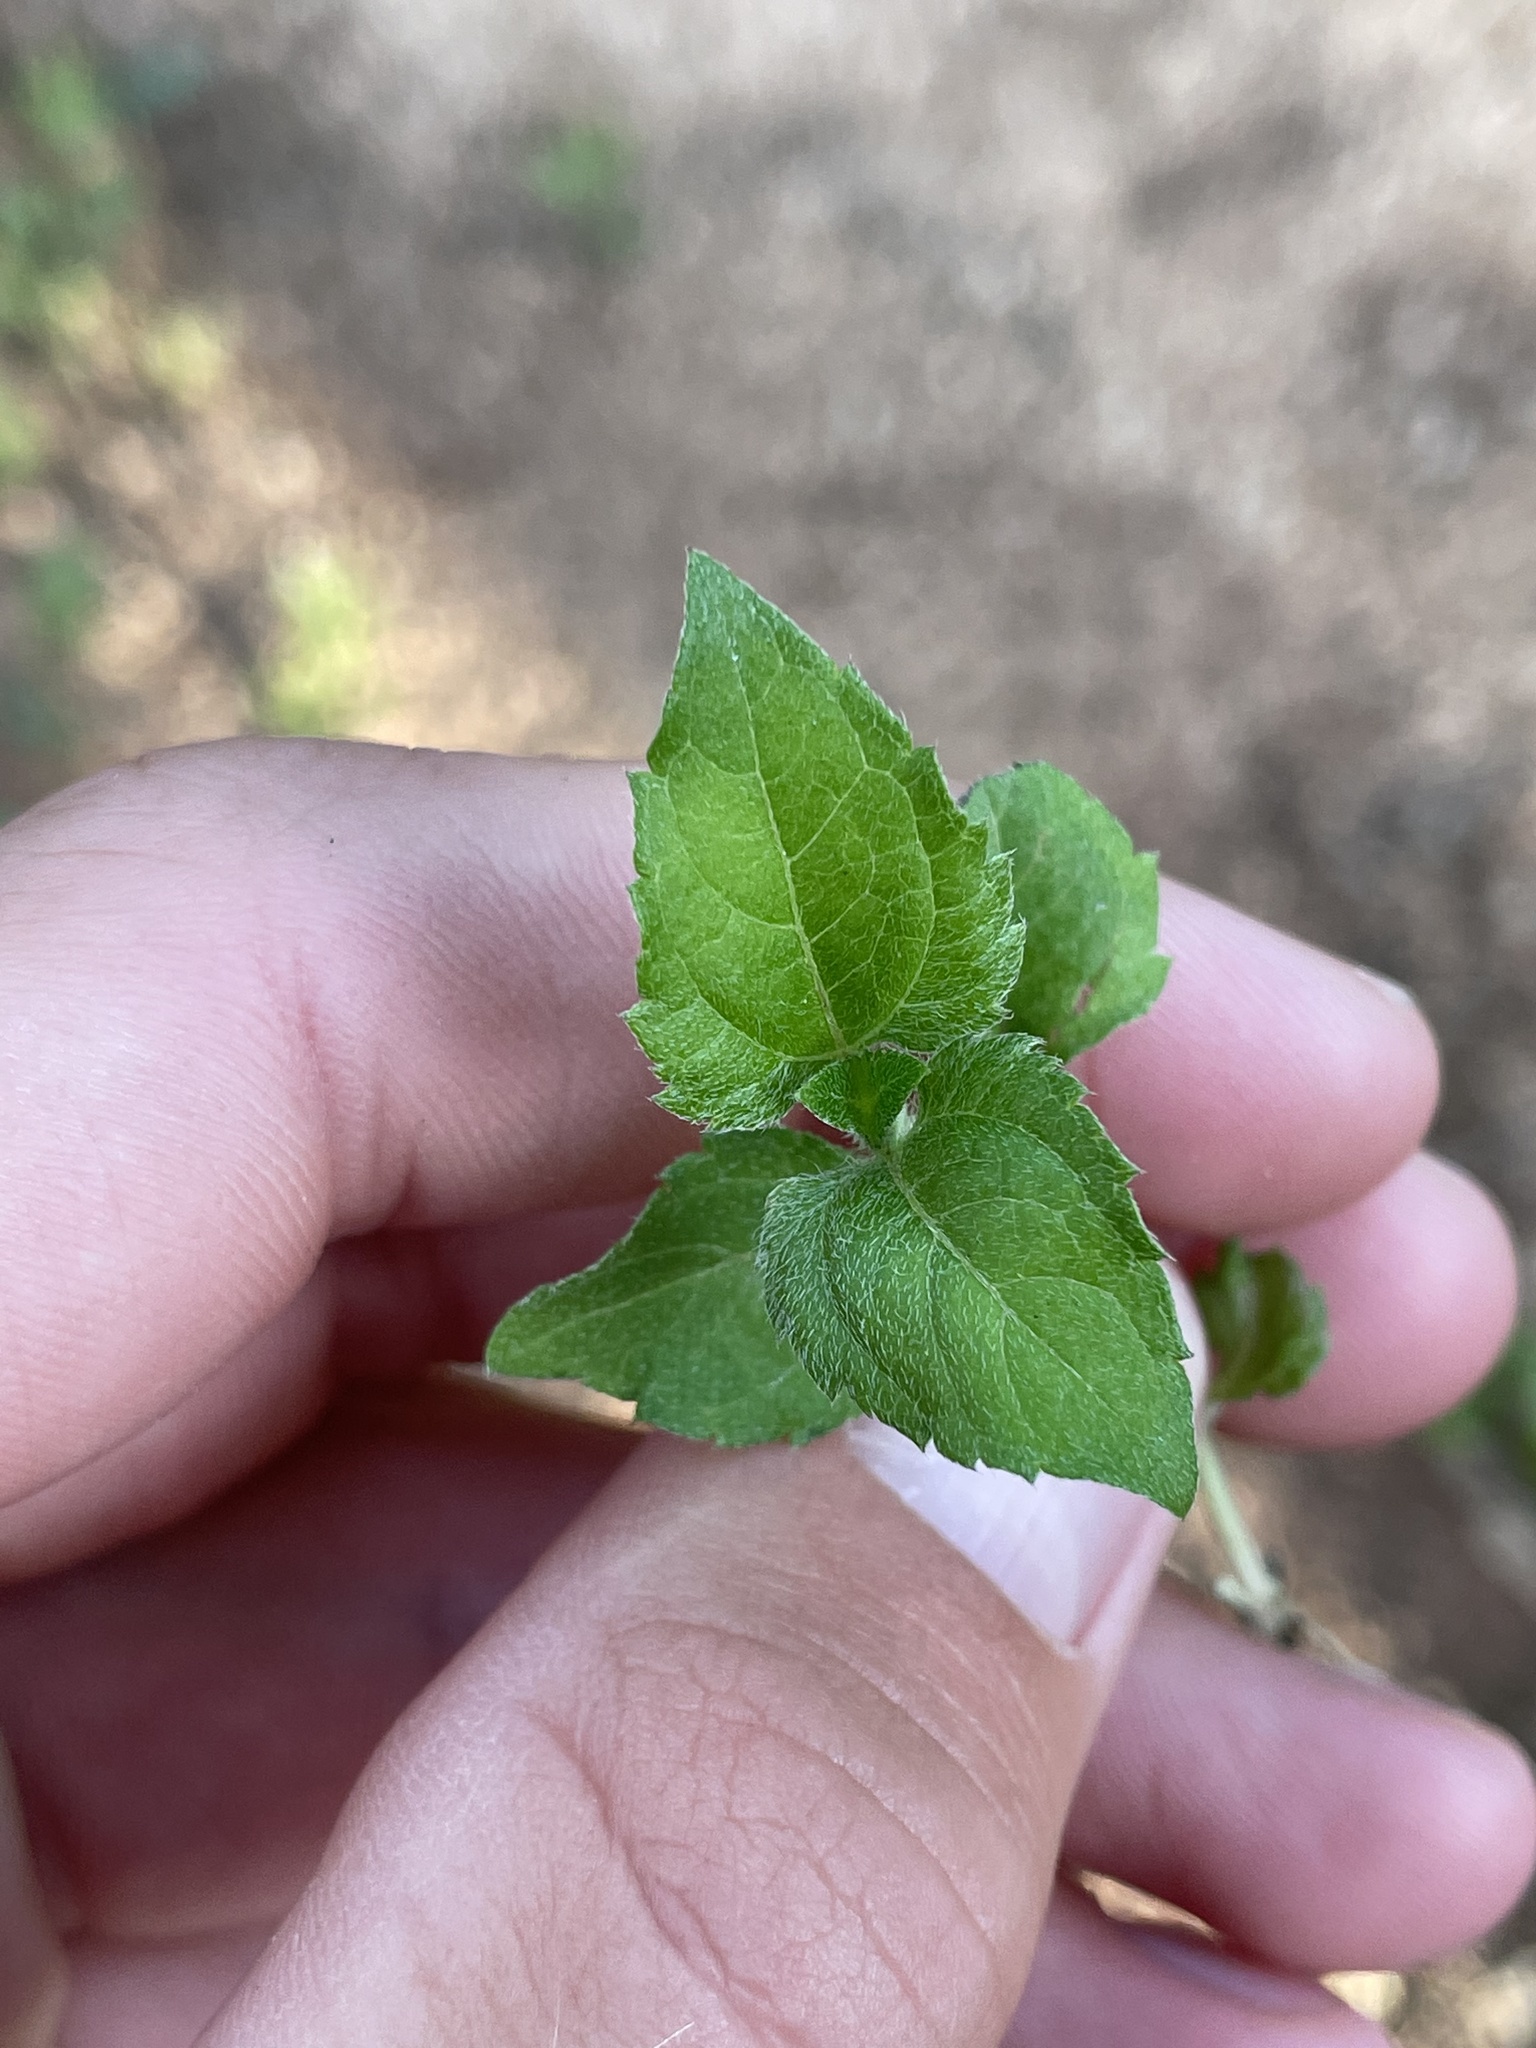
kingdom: Plantae
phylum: Tracheophyta
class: Magnoliopsida
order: Asterales
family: Asteraceae
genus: Calyptocarpus
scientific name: Calyptocarpus vialis
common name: Straggler daisy
